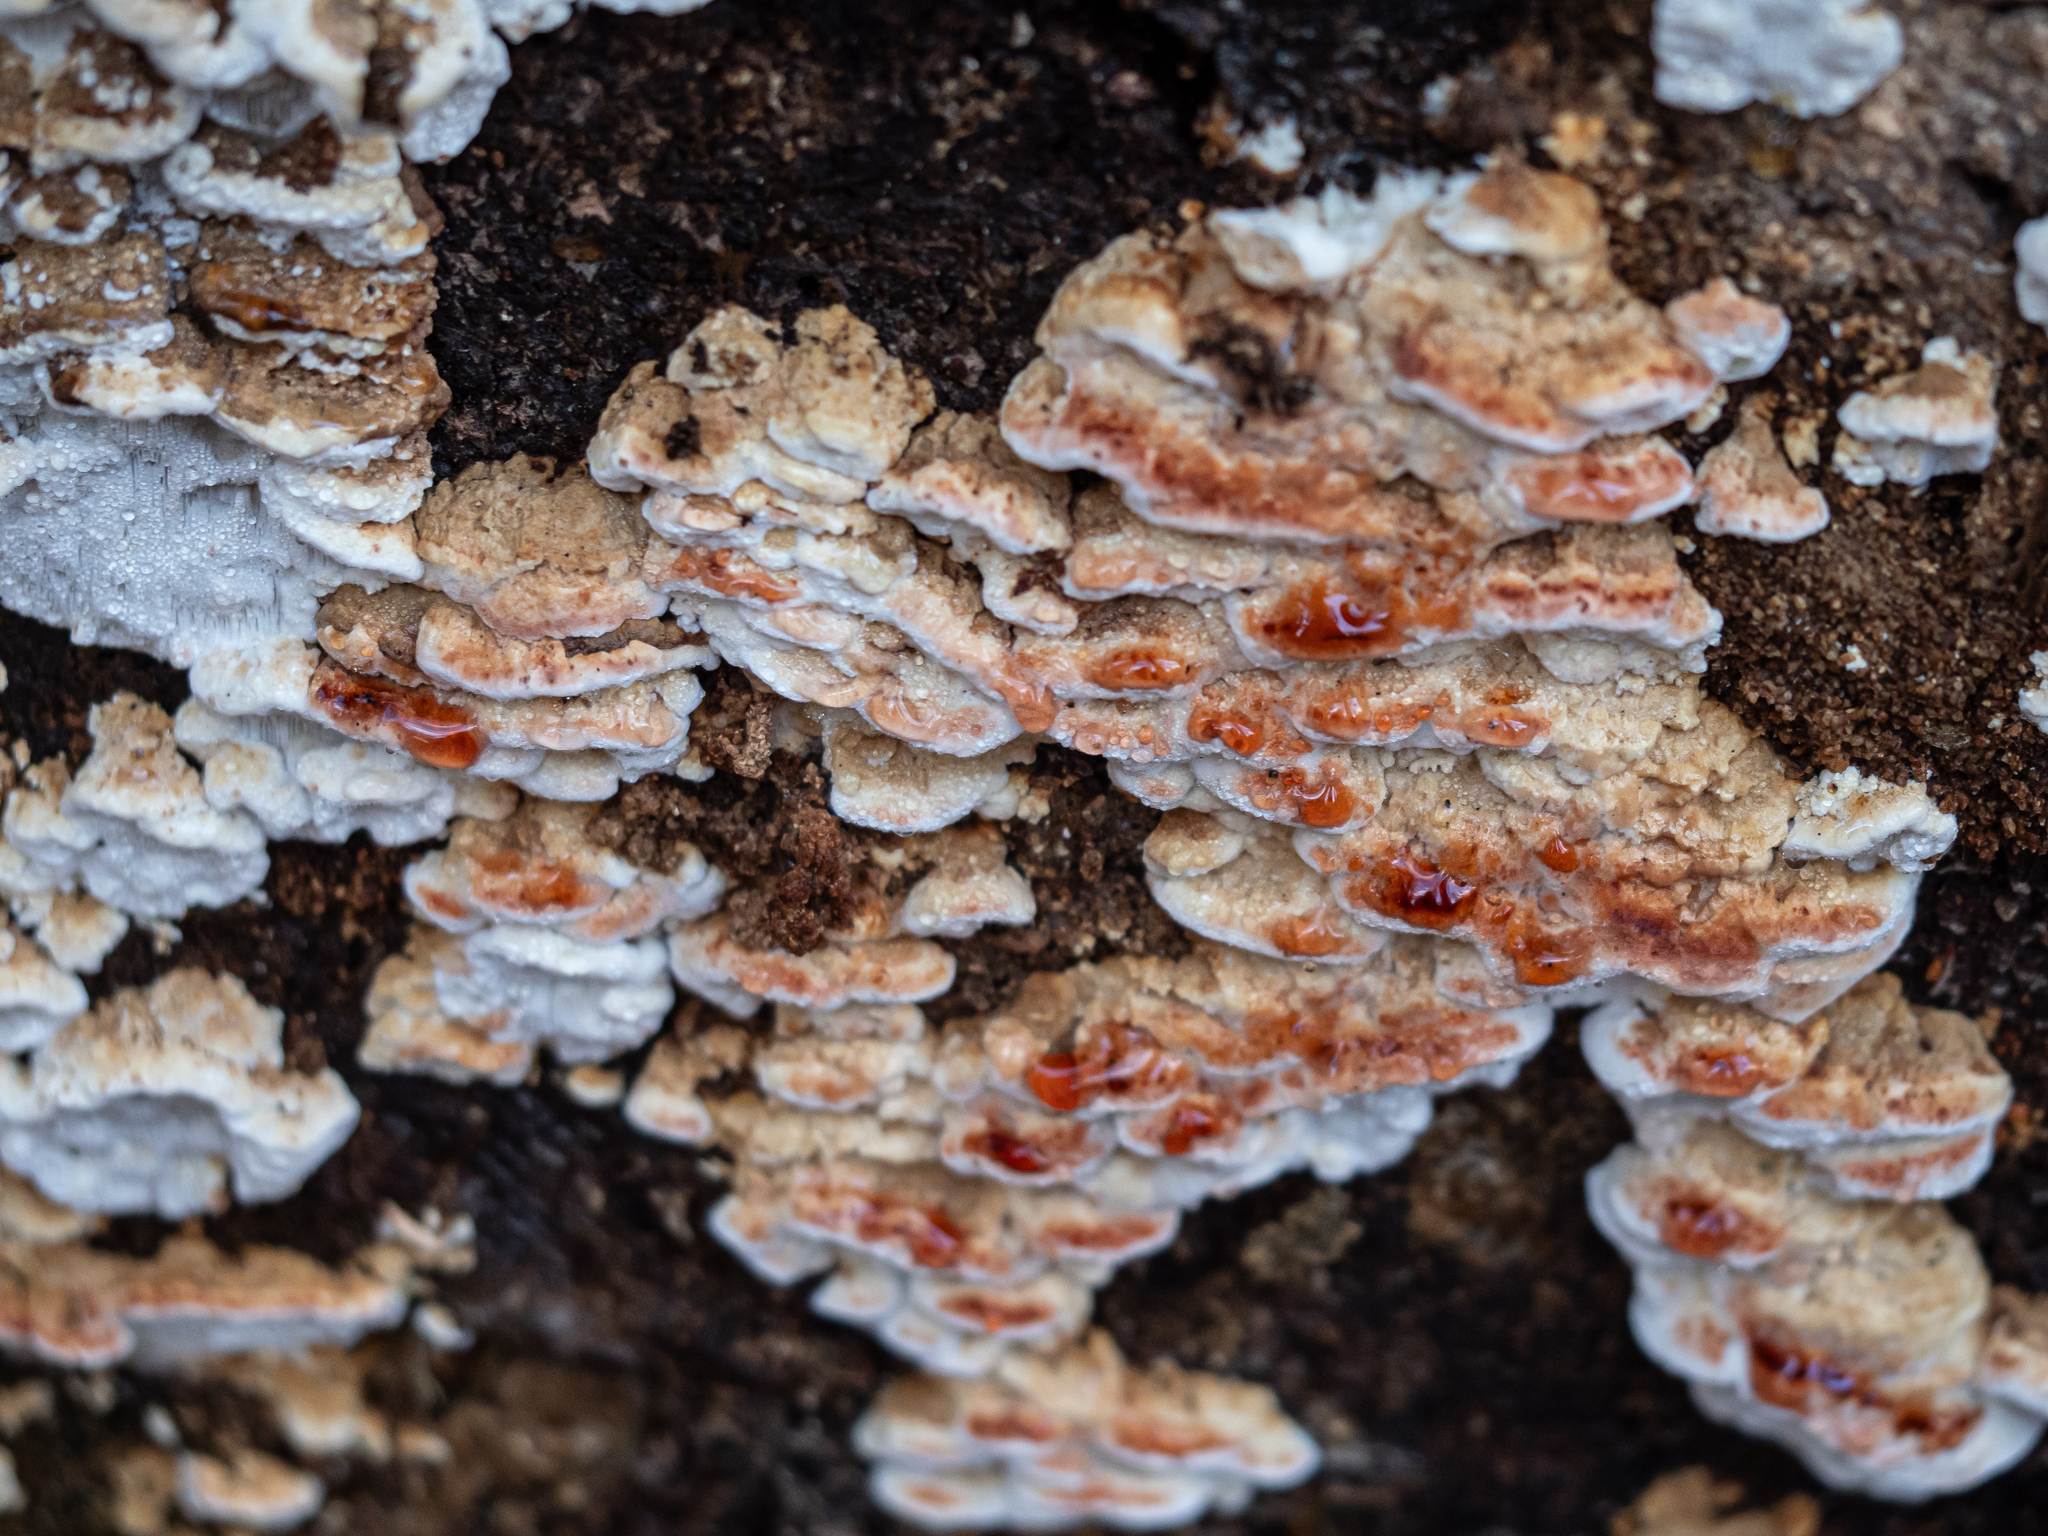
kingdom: Fungi
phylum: Basidiomycota
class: Agaricomycetes
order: Polyporales
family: Fomitopsidaceae
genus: Neoantrodia
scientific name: Neoantrodia serialis
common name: Serried porecrust
